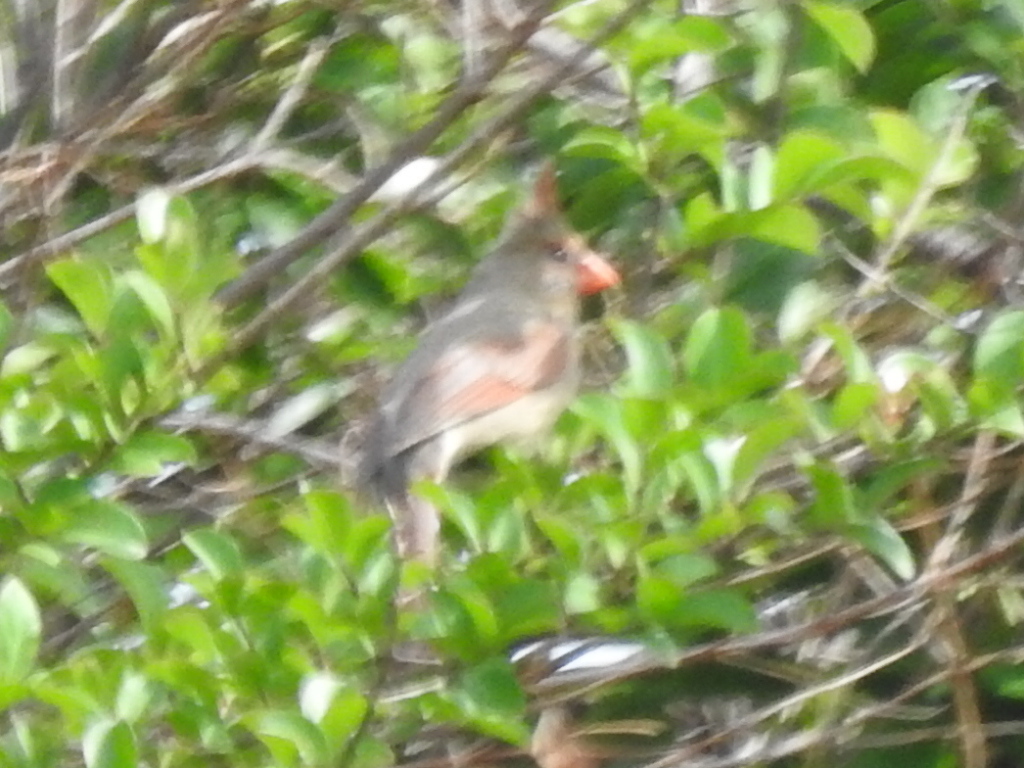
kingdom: Animalia
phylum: Chordata
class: Aves
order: Passeriformes
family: Cardinalidae
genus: Cardinalis
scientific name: Cardinalis cardinalis
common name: Northern cardinal
